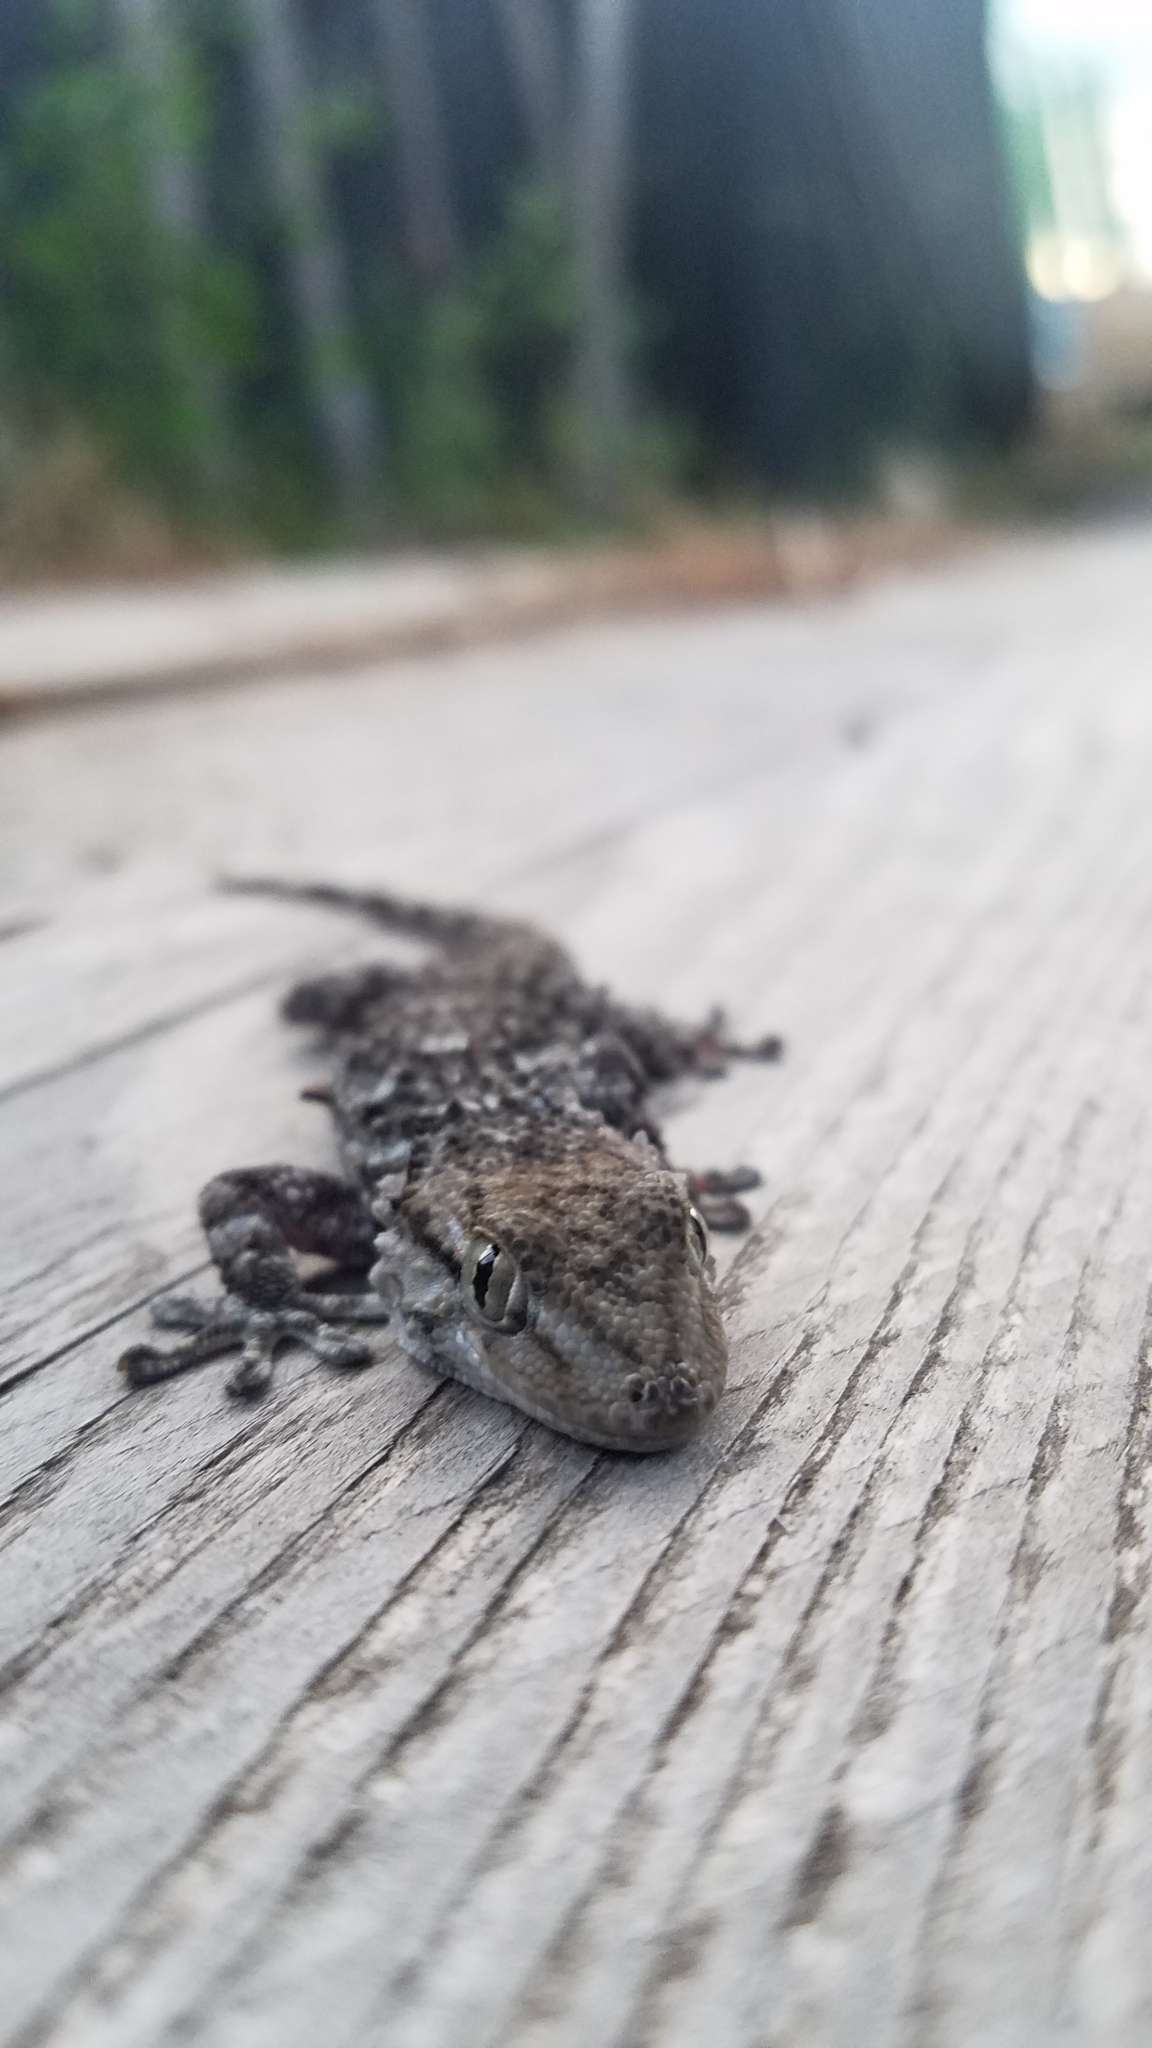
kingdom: Animalia
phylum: Chordata
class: Squamata
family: Phyllodactylidae
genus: Tarentola
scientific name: Tarentola mauritanica
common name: Moorish gecko
